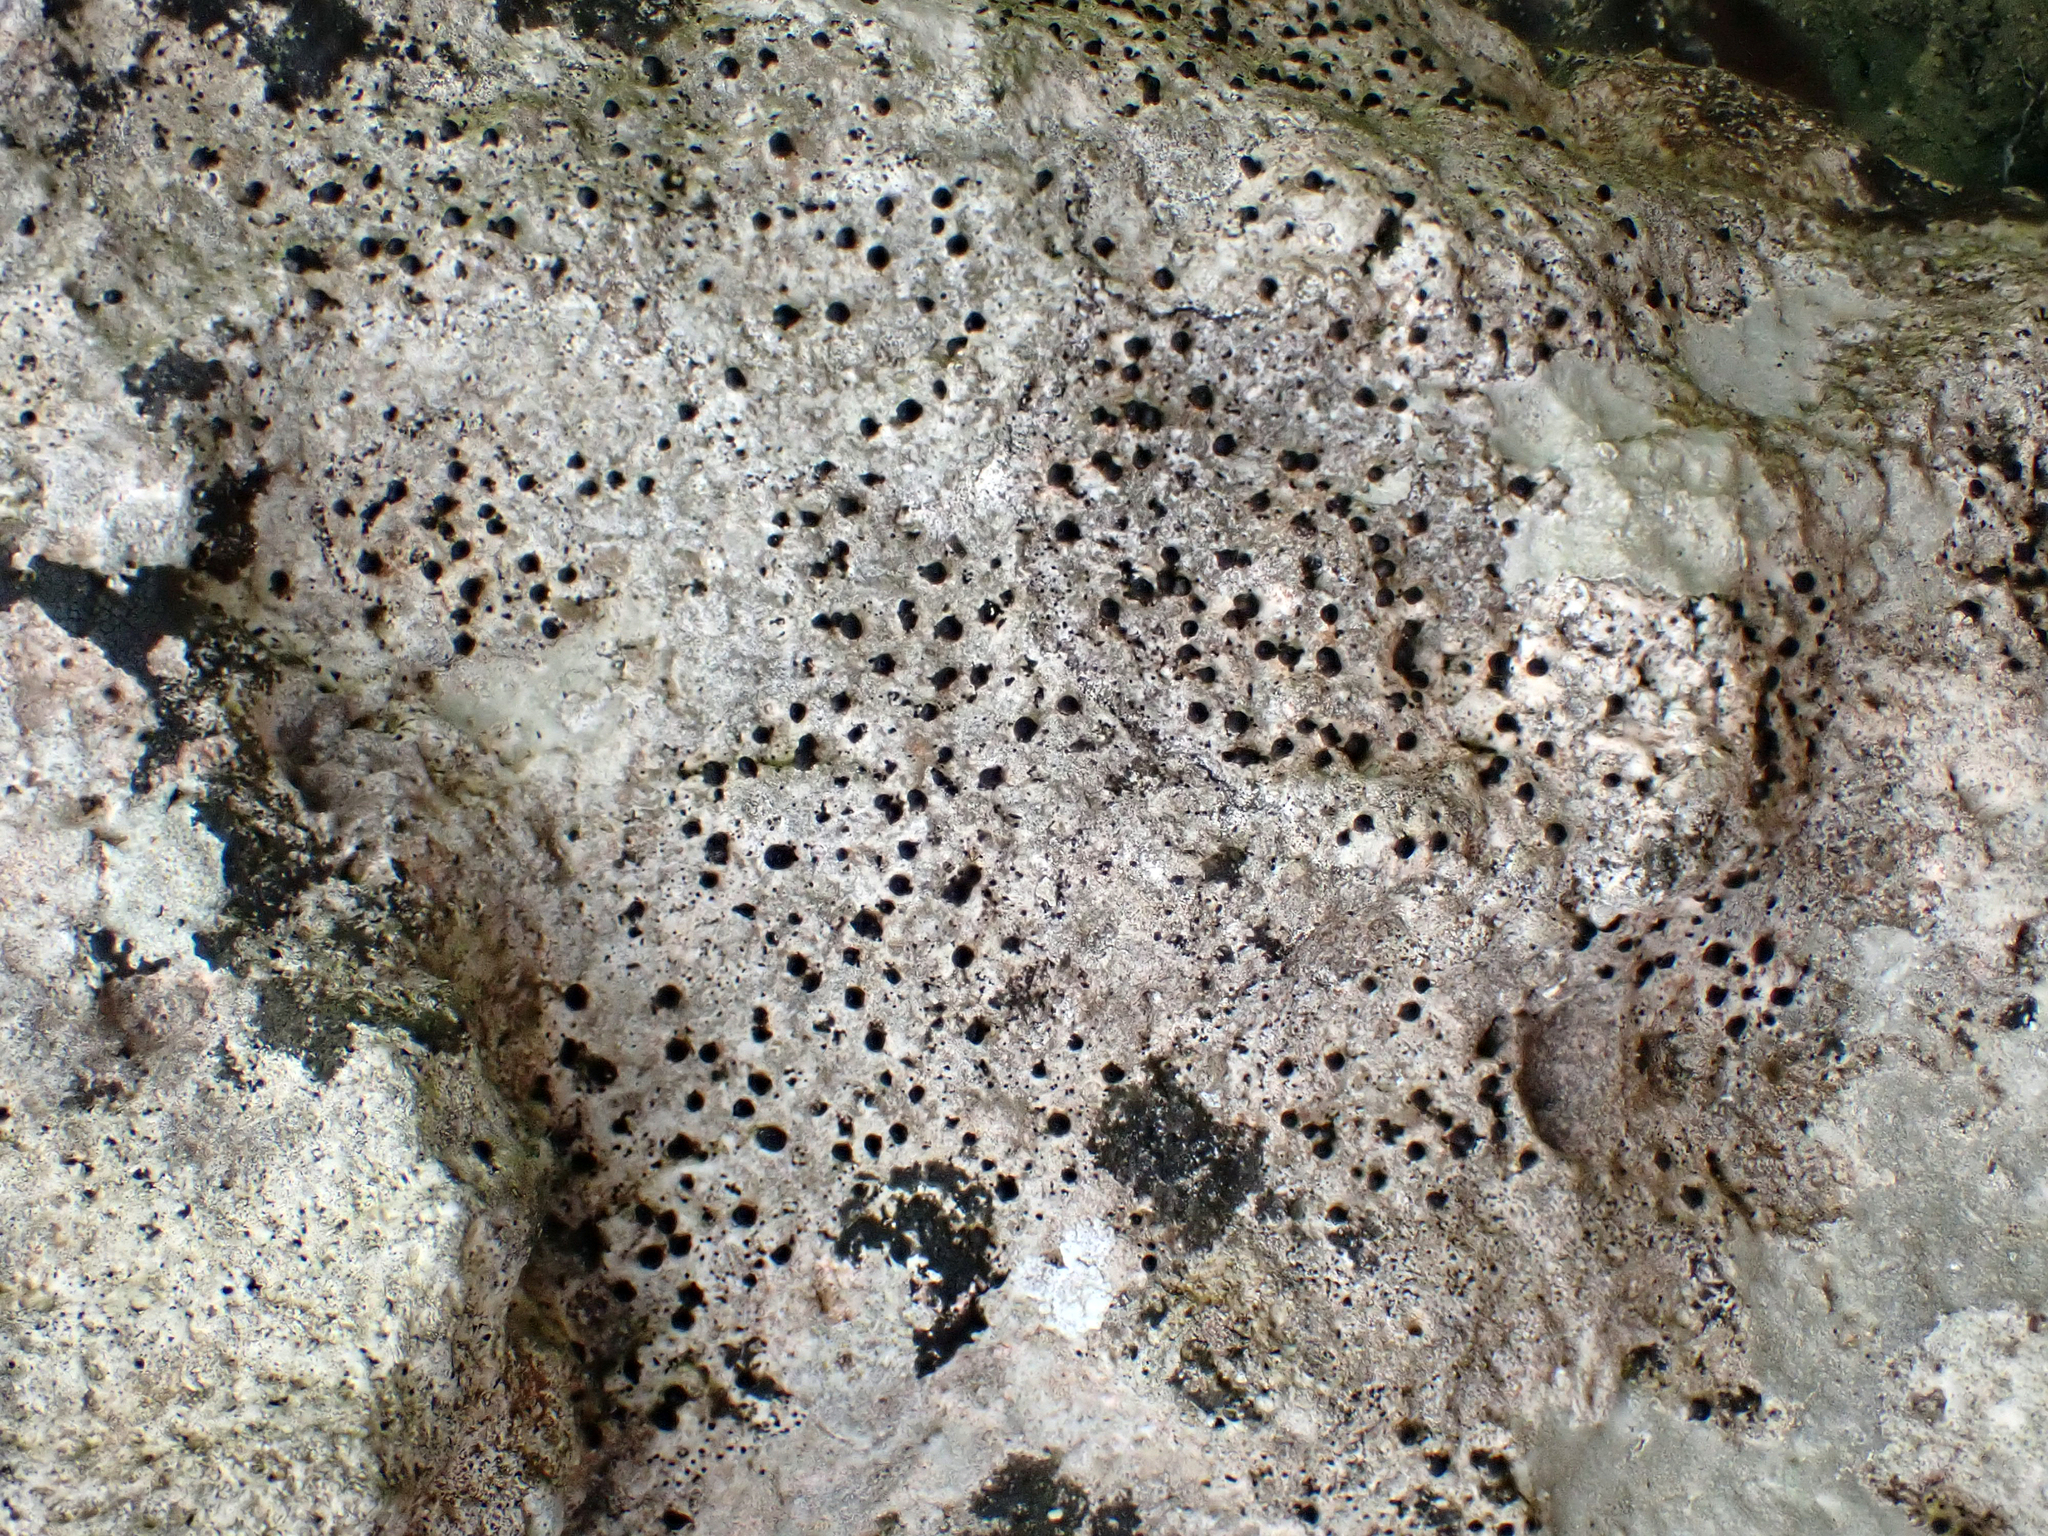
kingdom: Fungi
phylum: Ascomycota
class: Eurotiomycetes
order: Pyrenulales
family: Pyrenulaceae
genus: Lithothelium
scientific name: Lithothelium australe
